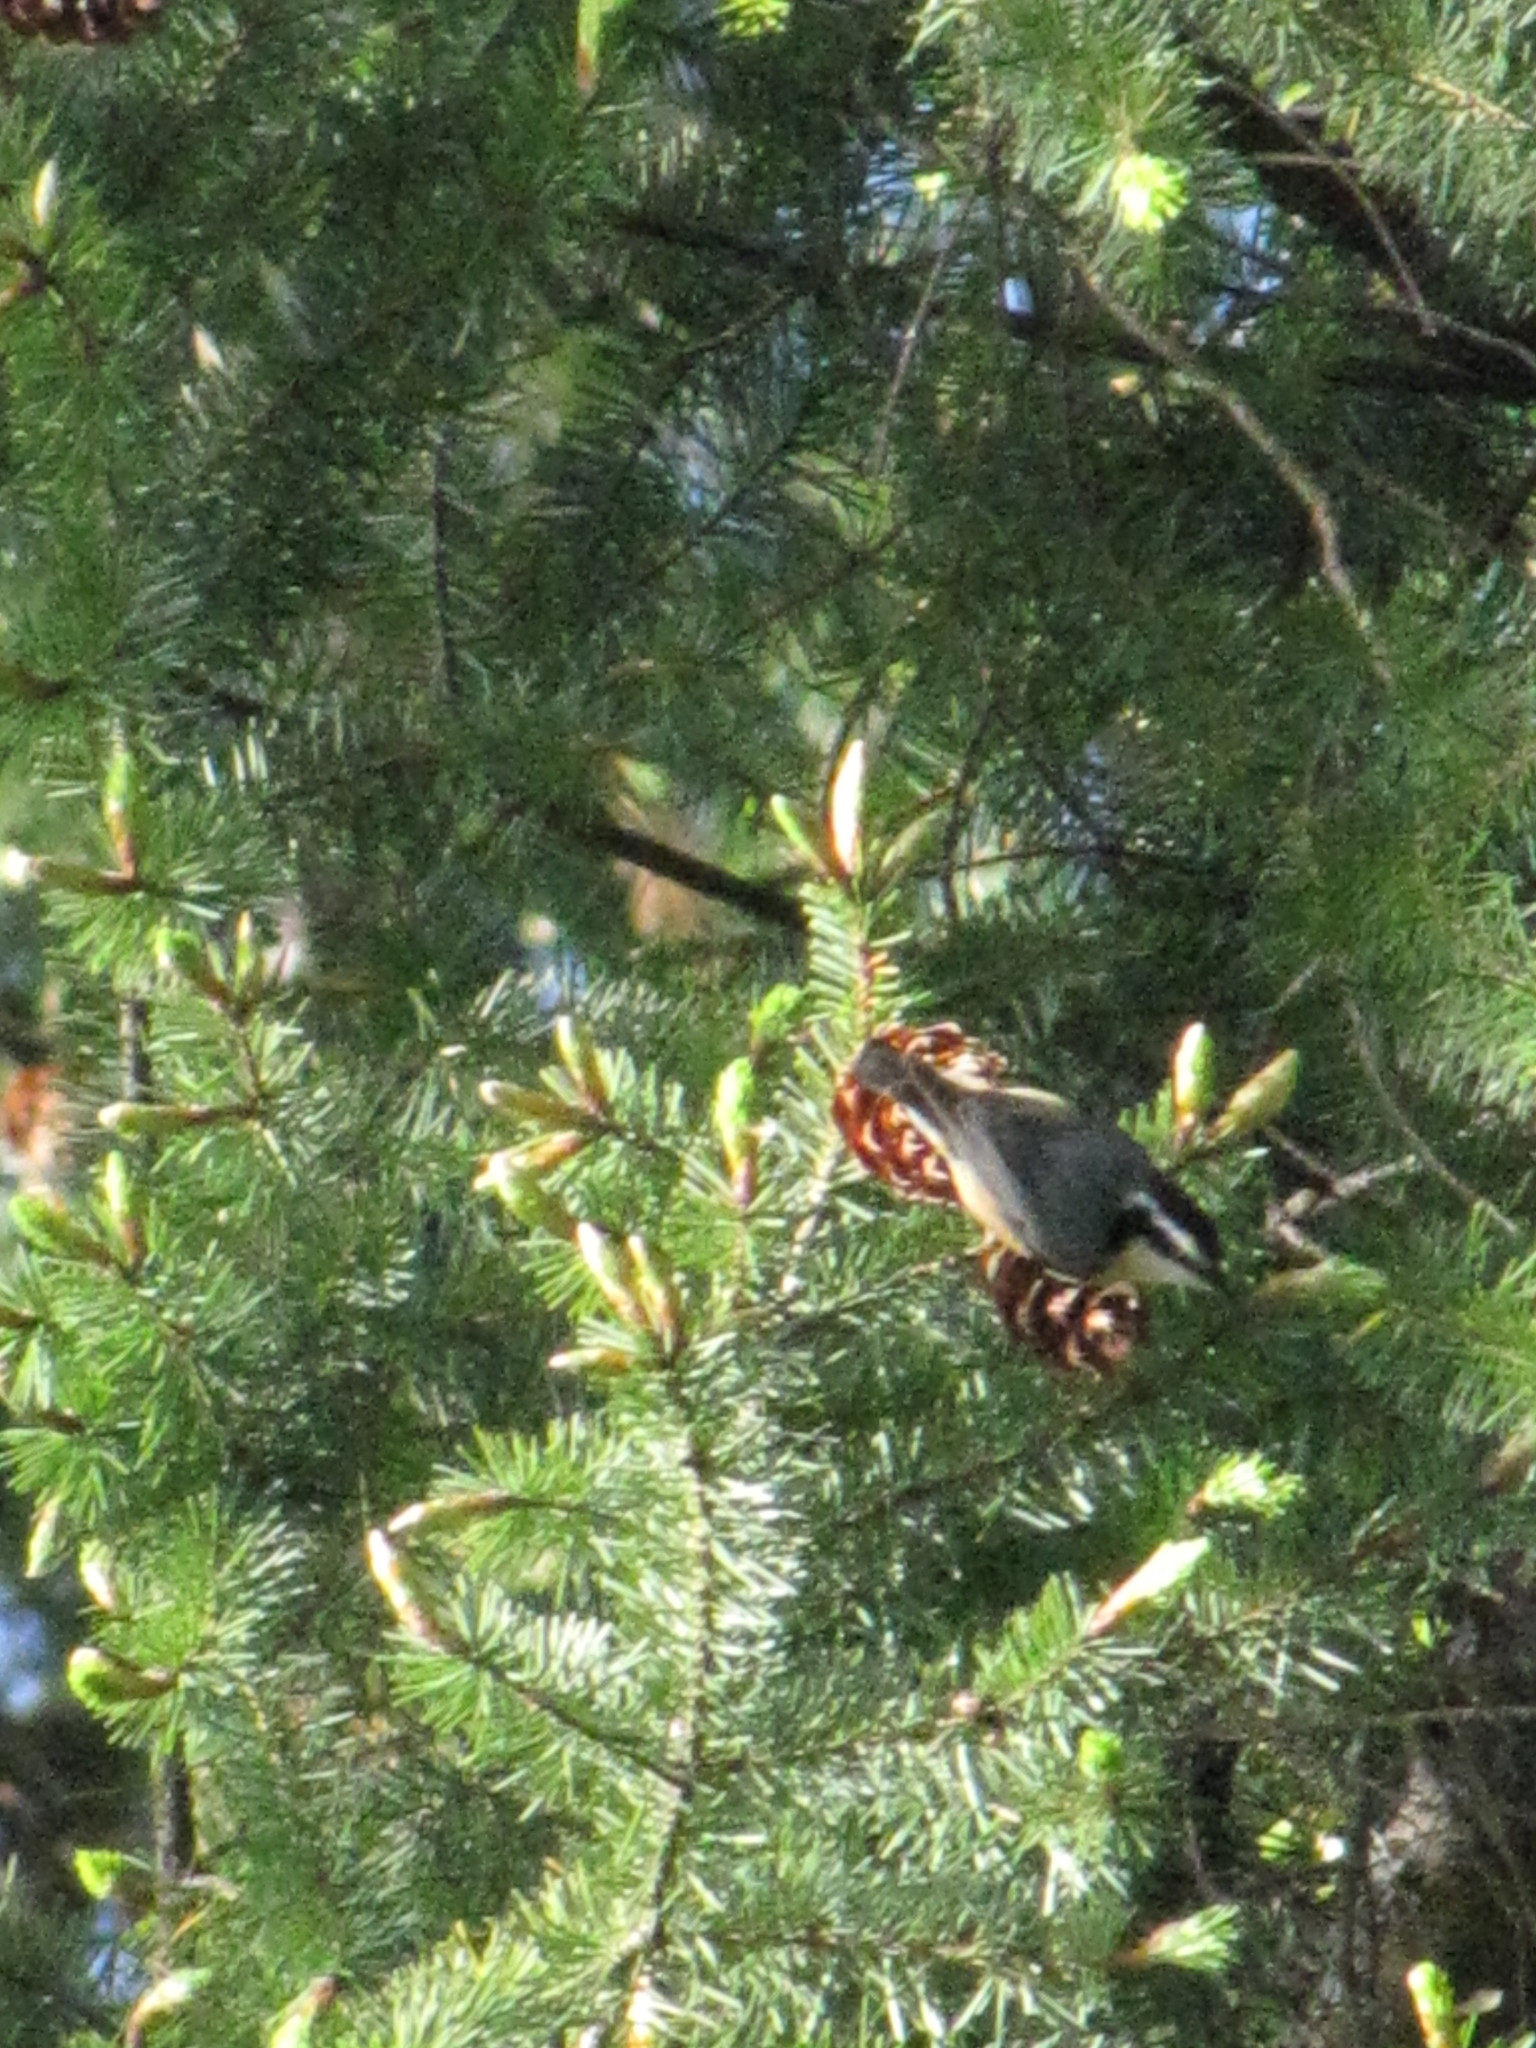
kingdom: Animalia
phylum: Chordata
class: Aves
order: Passeriformes
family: Sittidae
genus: Sitta
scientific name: Sitta canadensis
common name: Red-breasted nuthatch
